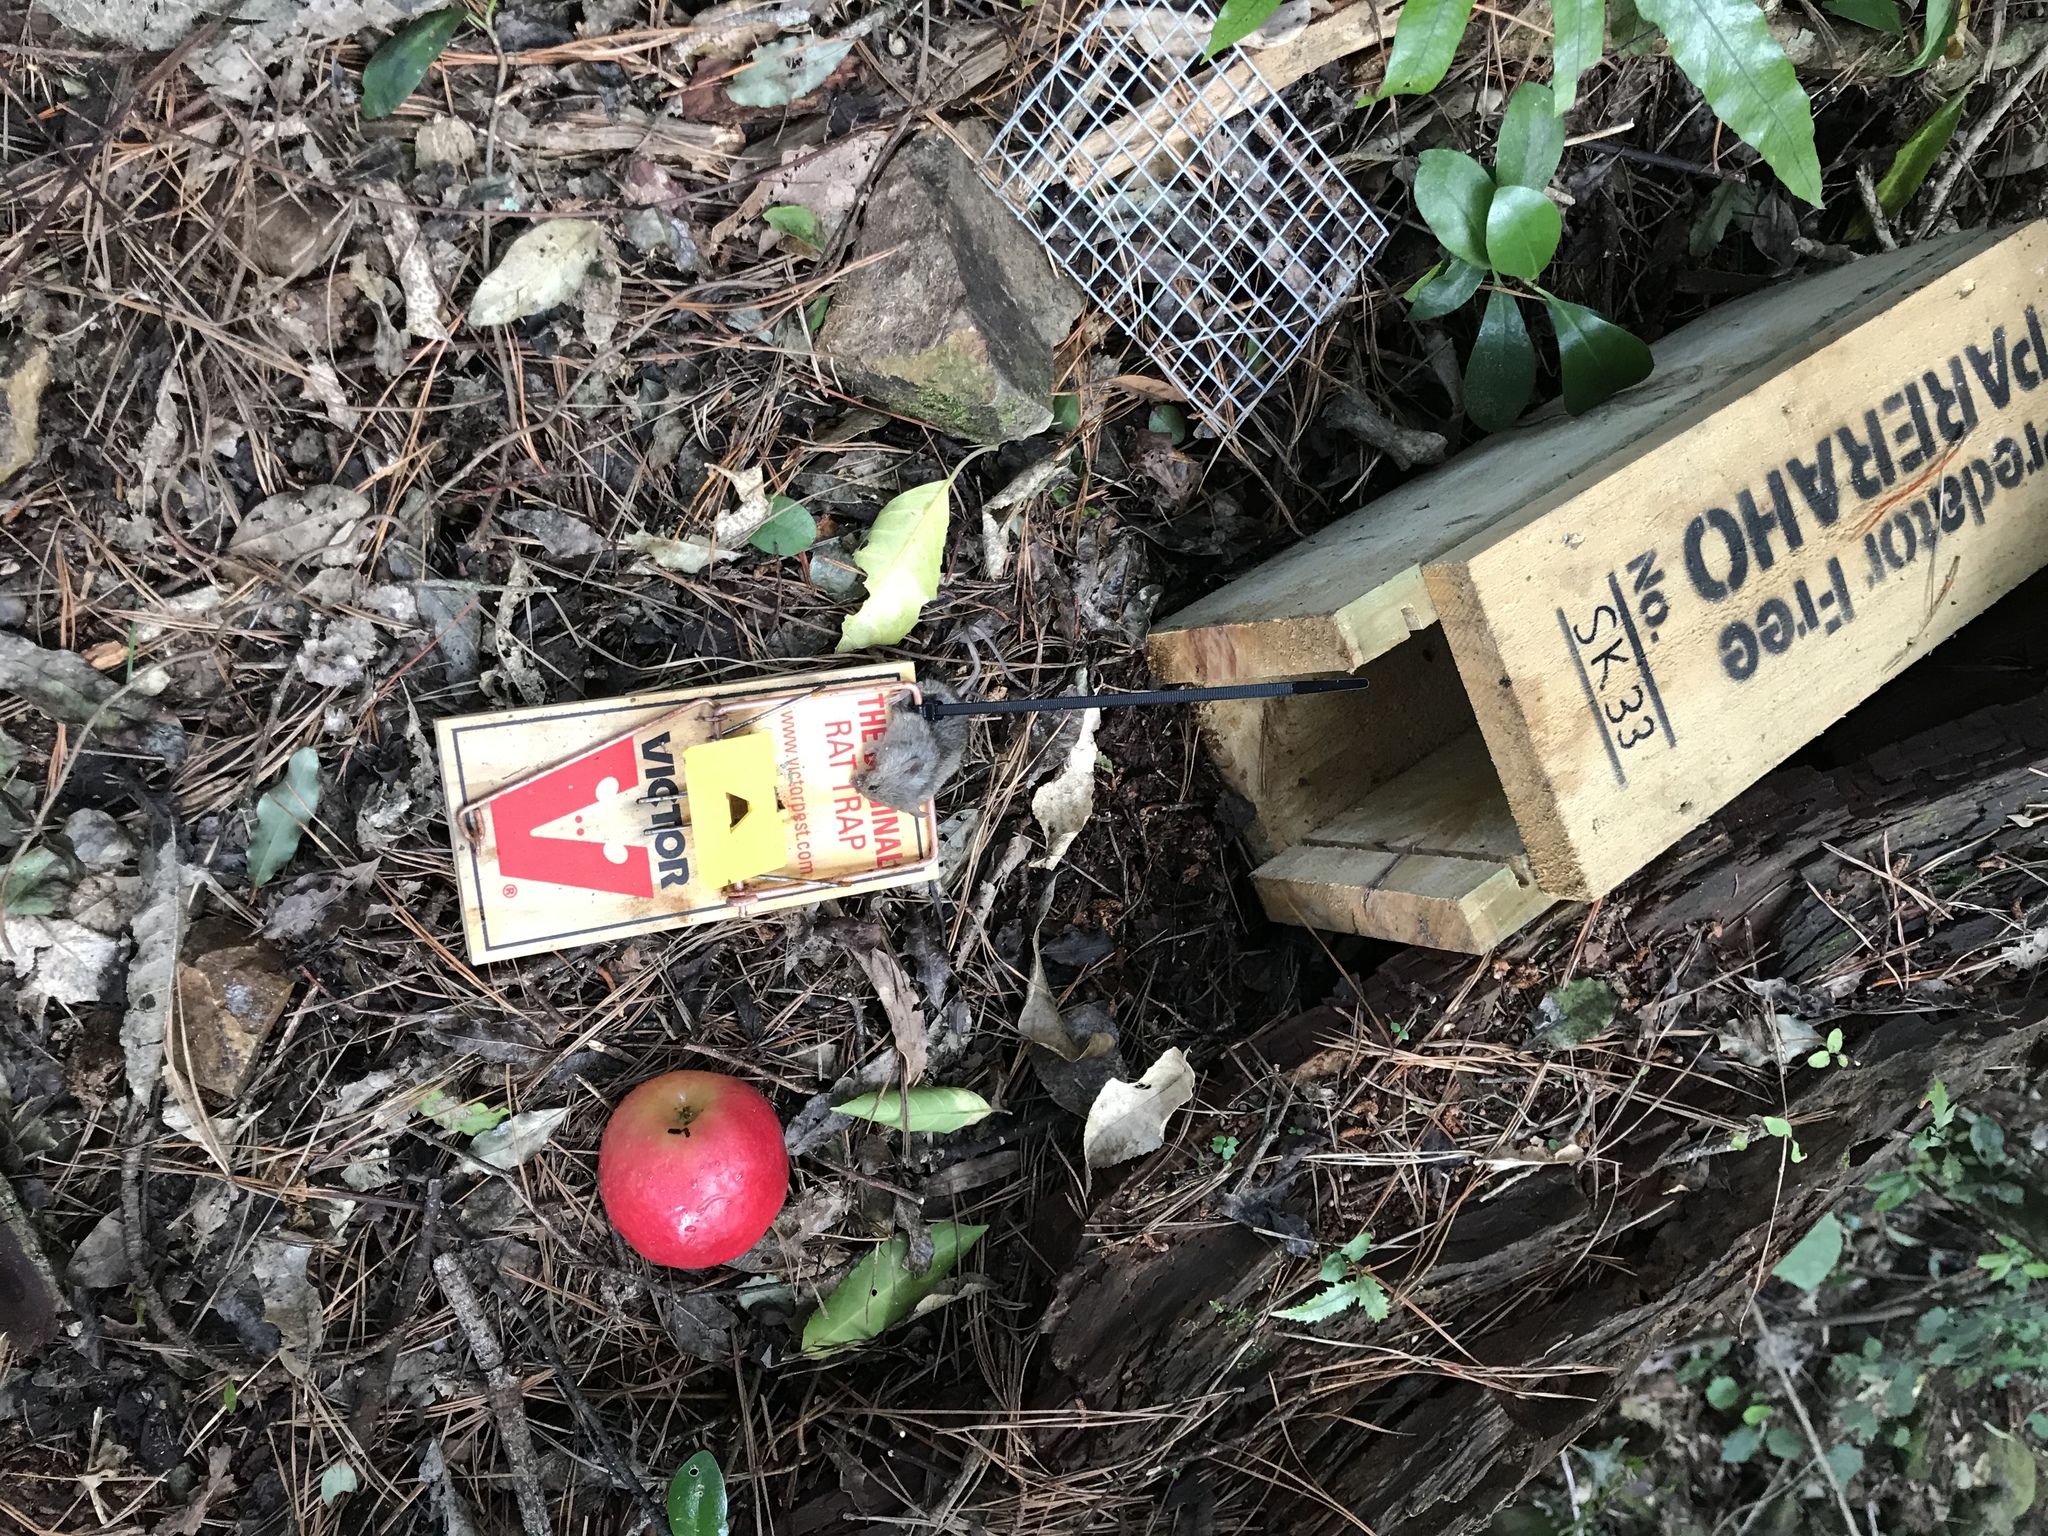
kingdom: Animalia
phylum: Chordata
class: Mammalia
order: Rodentia
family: Muridae
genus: Mus
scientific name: Mus musculus
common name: House mouse
